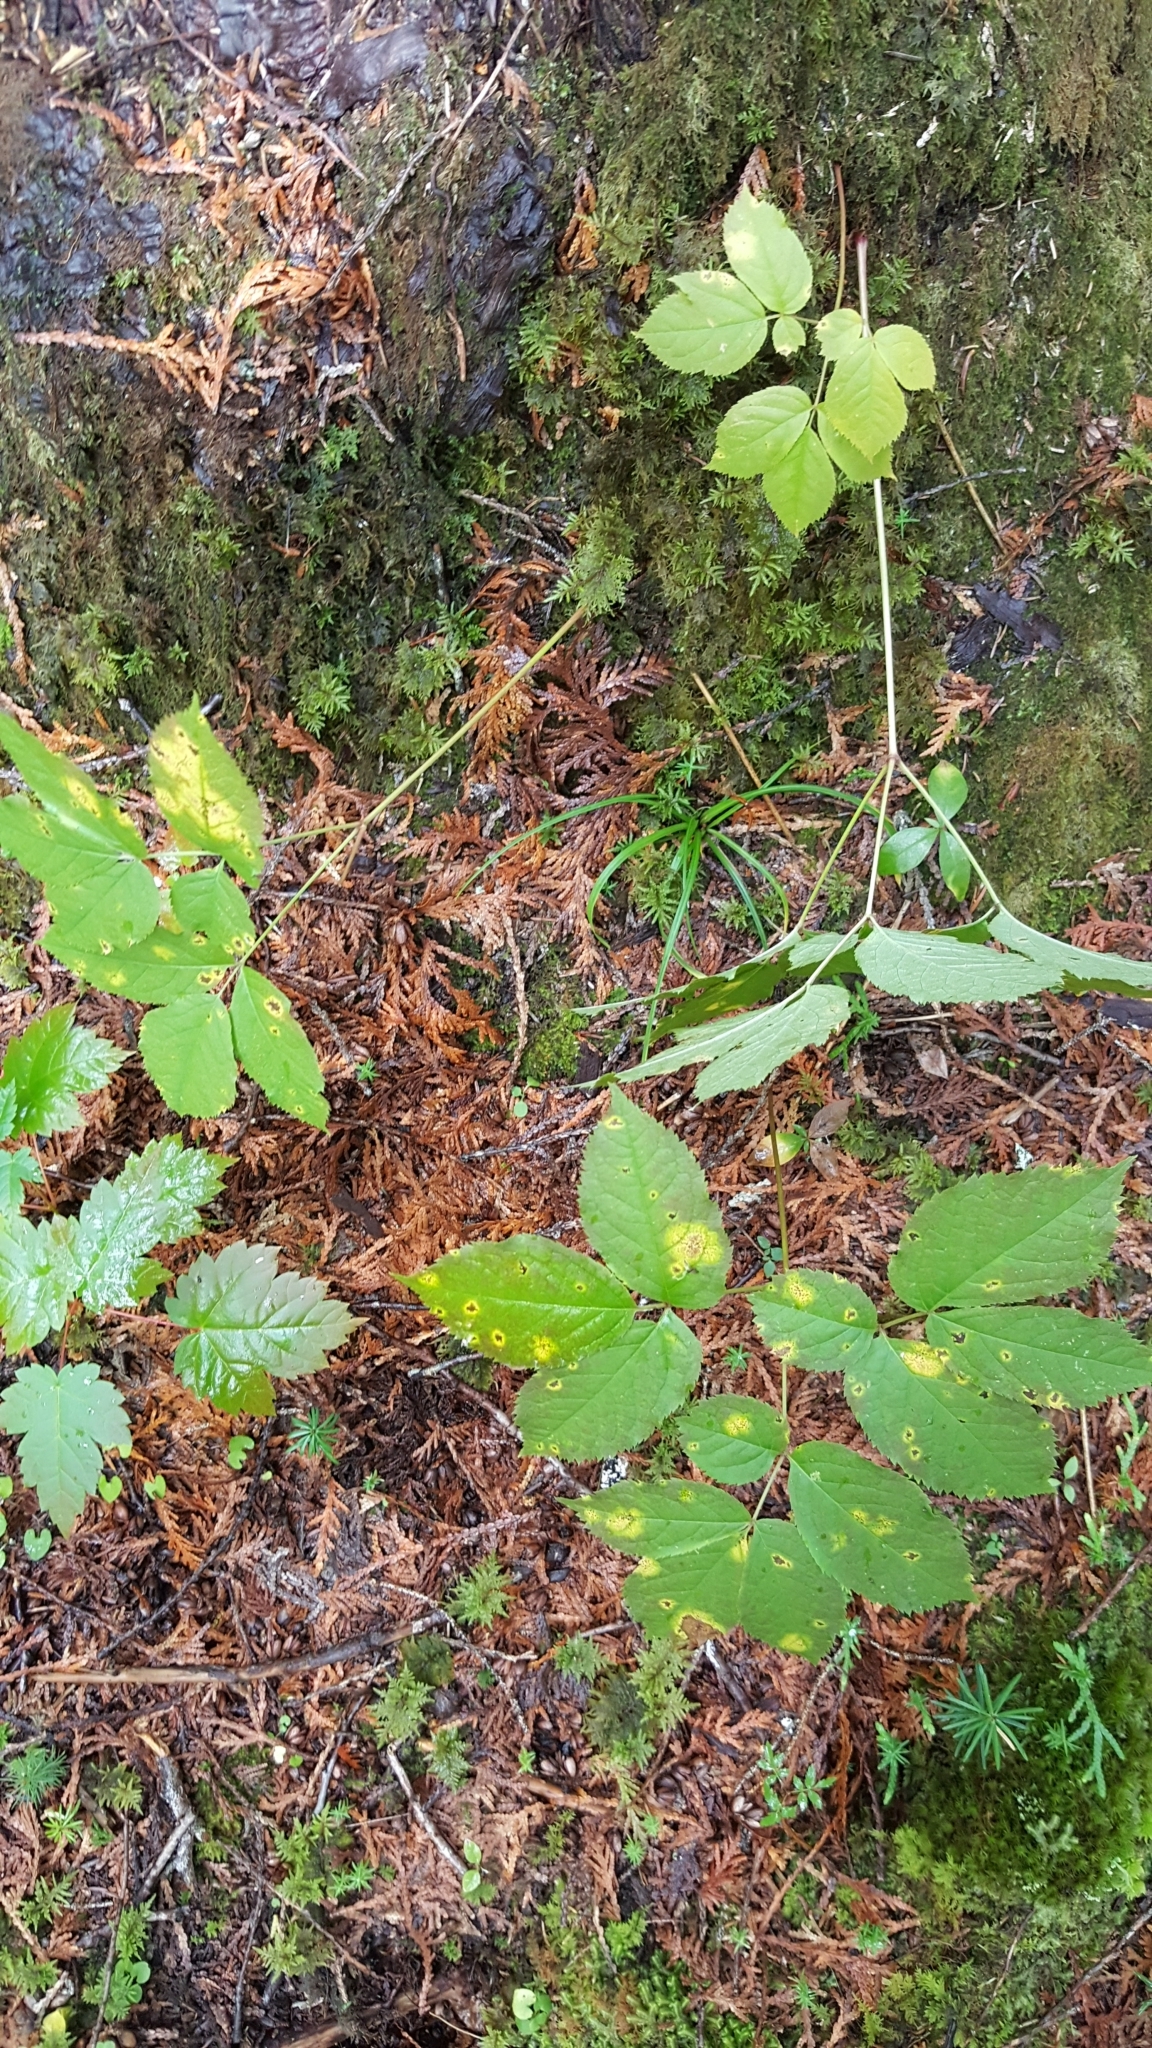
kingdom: Plantae
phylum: Tracheophyta
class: Magnoliopsida
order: Apiales
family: Araliaceae
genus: Aralia
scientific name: Aralia nudicaulis
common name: Wild sarsaparilla
